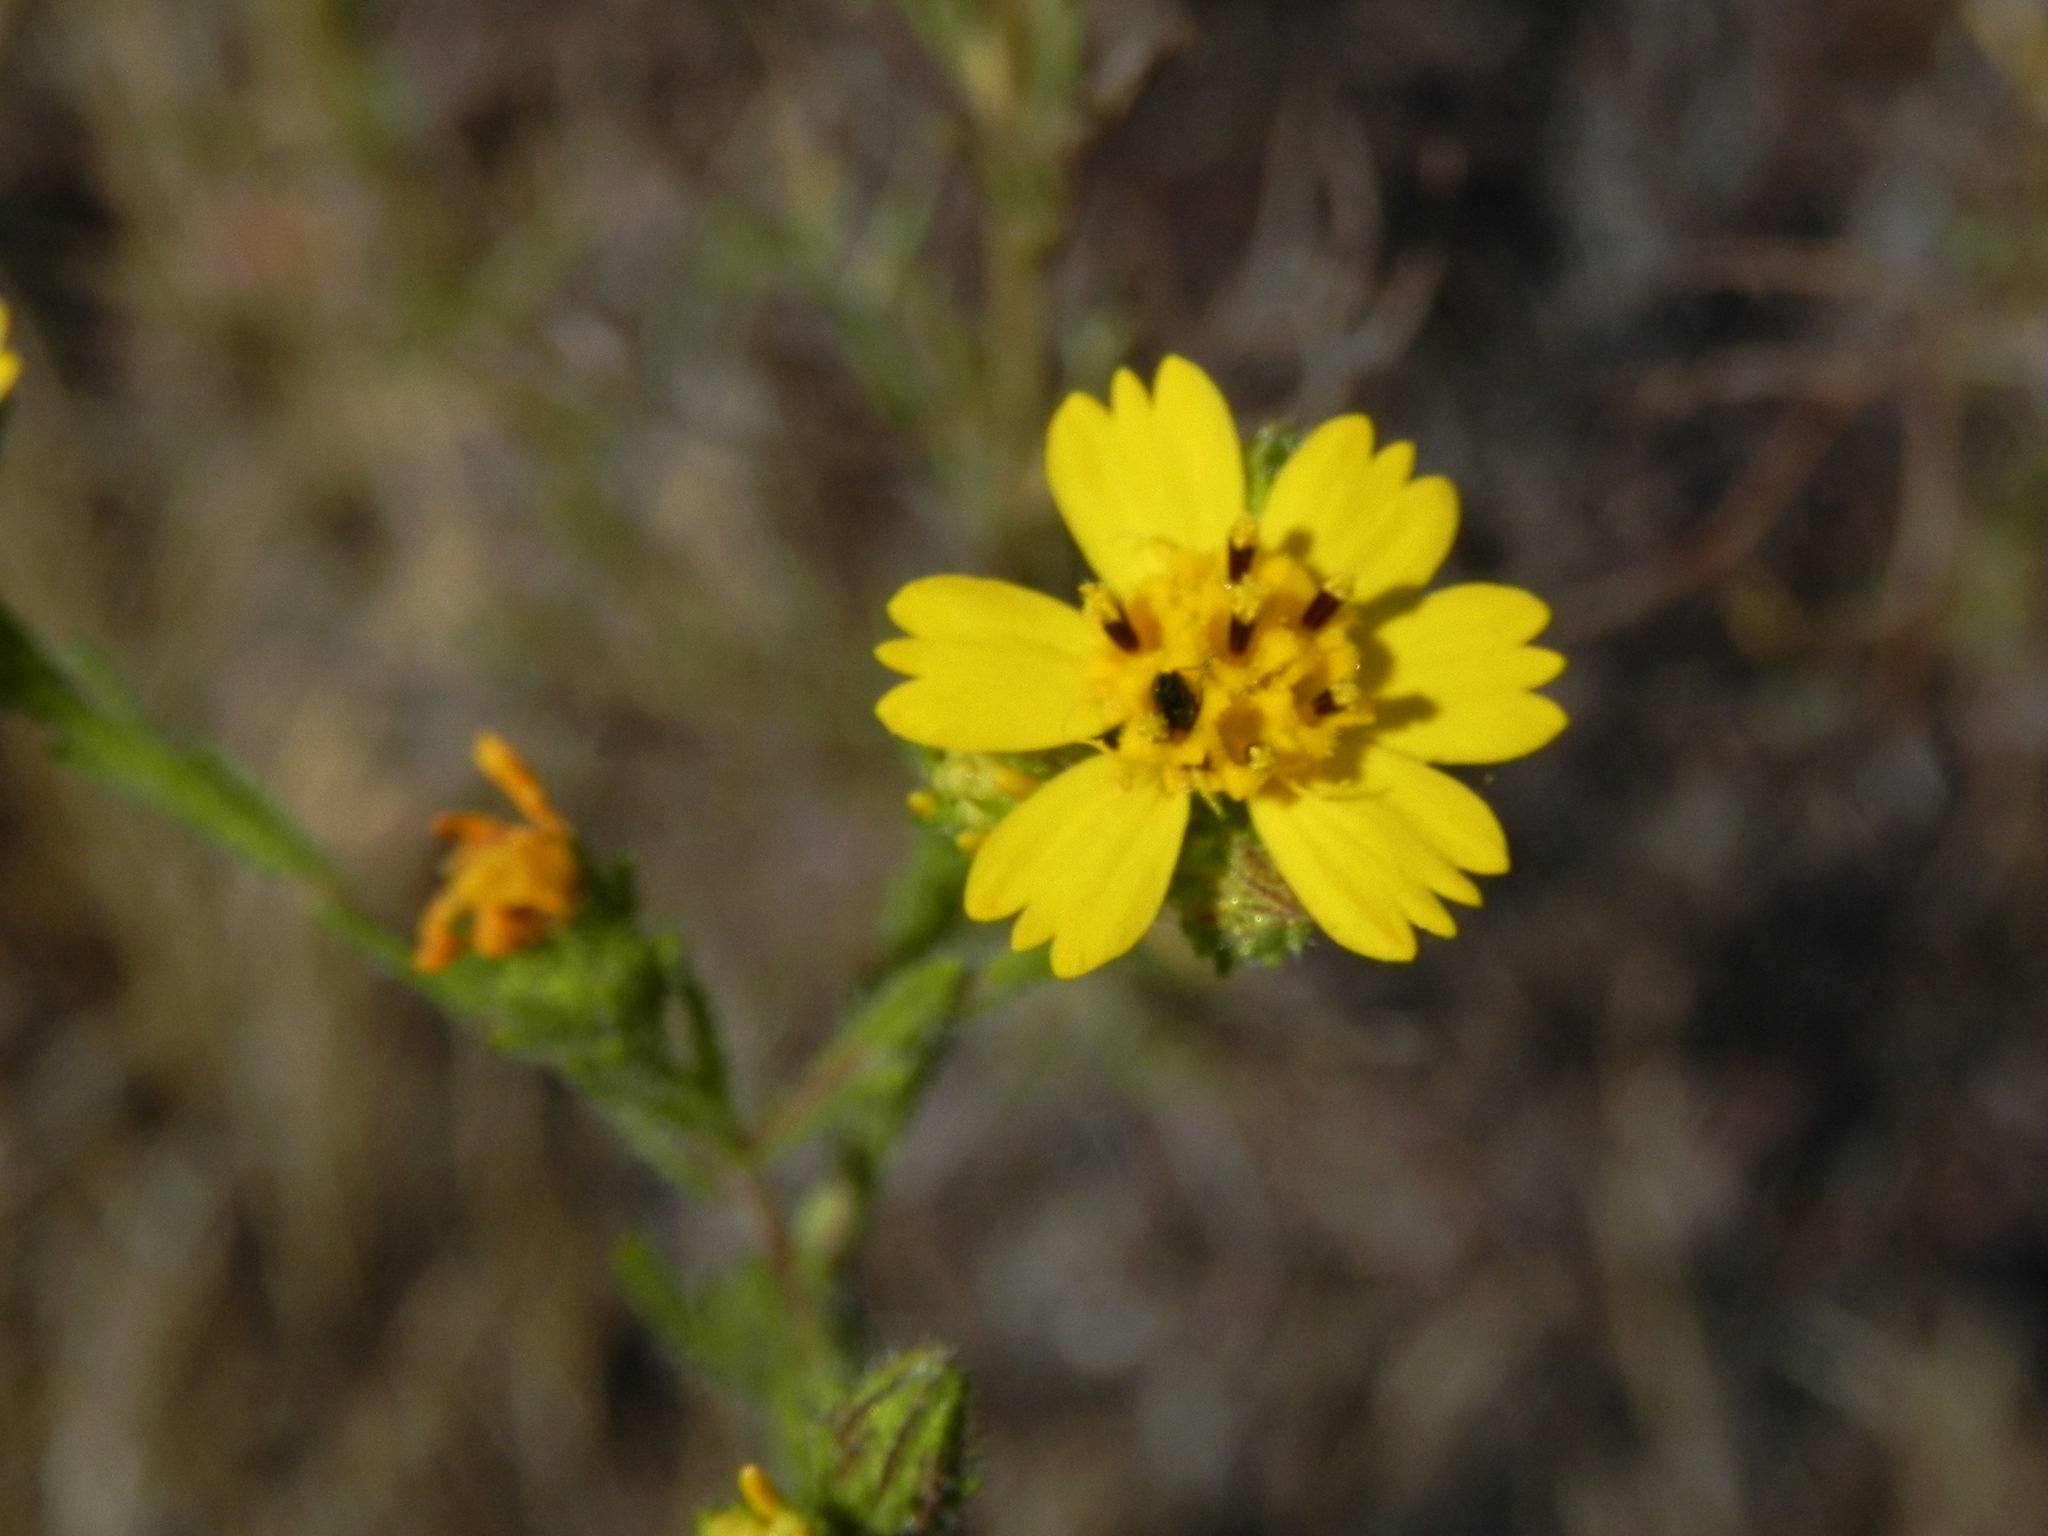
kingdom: Plantae
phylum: Tracheophyta
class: Magnoliopsida
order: Asterales
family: Asteraceae
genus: Deinandra
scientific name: Deinandra conjugens
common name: Otay tarplant
